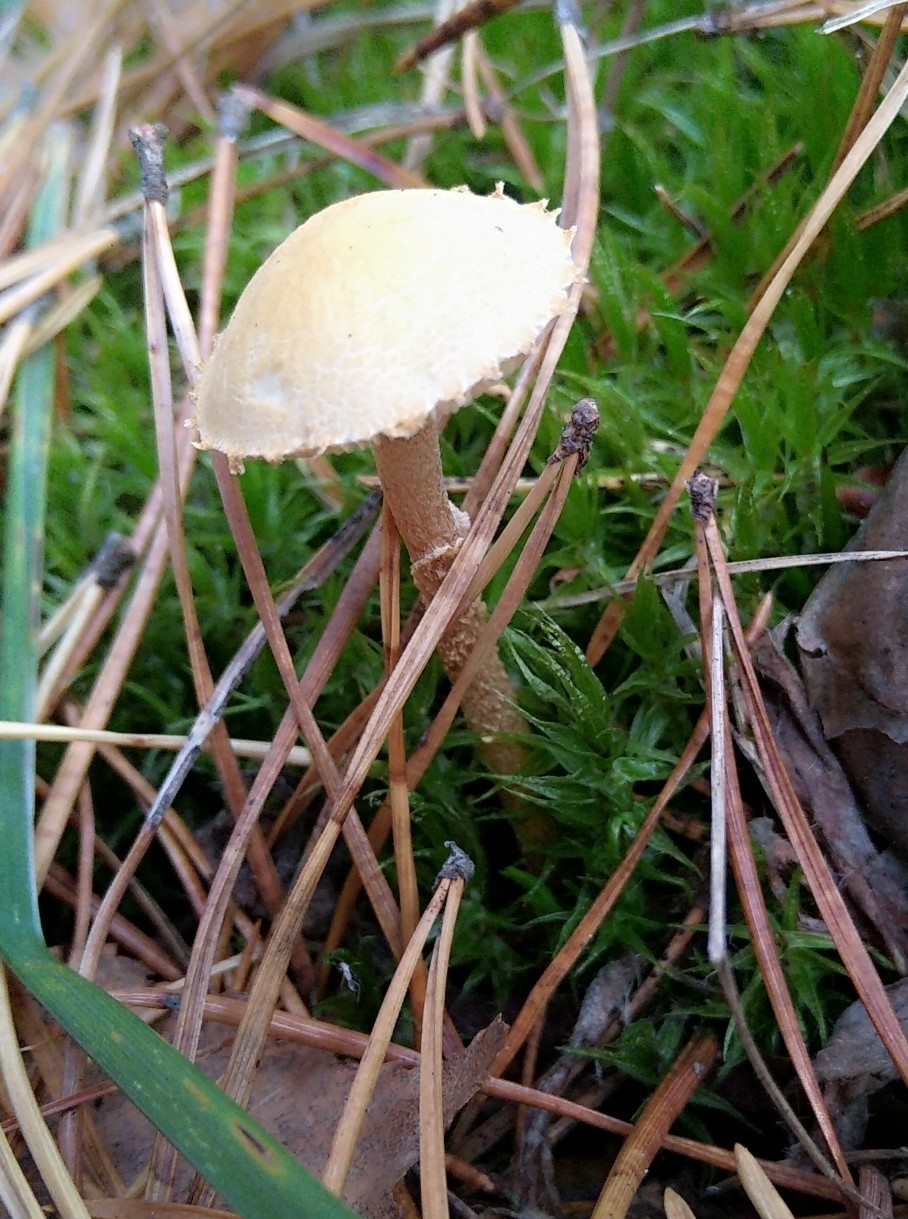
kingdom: Fungi
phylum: Basidiomycota
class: Agaricomycetes
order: Agaricales
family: Tricholomataceae
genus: Cystoderma
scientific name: Cystoderma amianthinum
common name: Earthy powdercap
